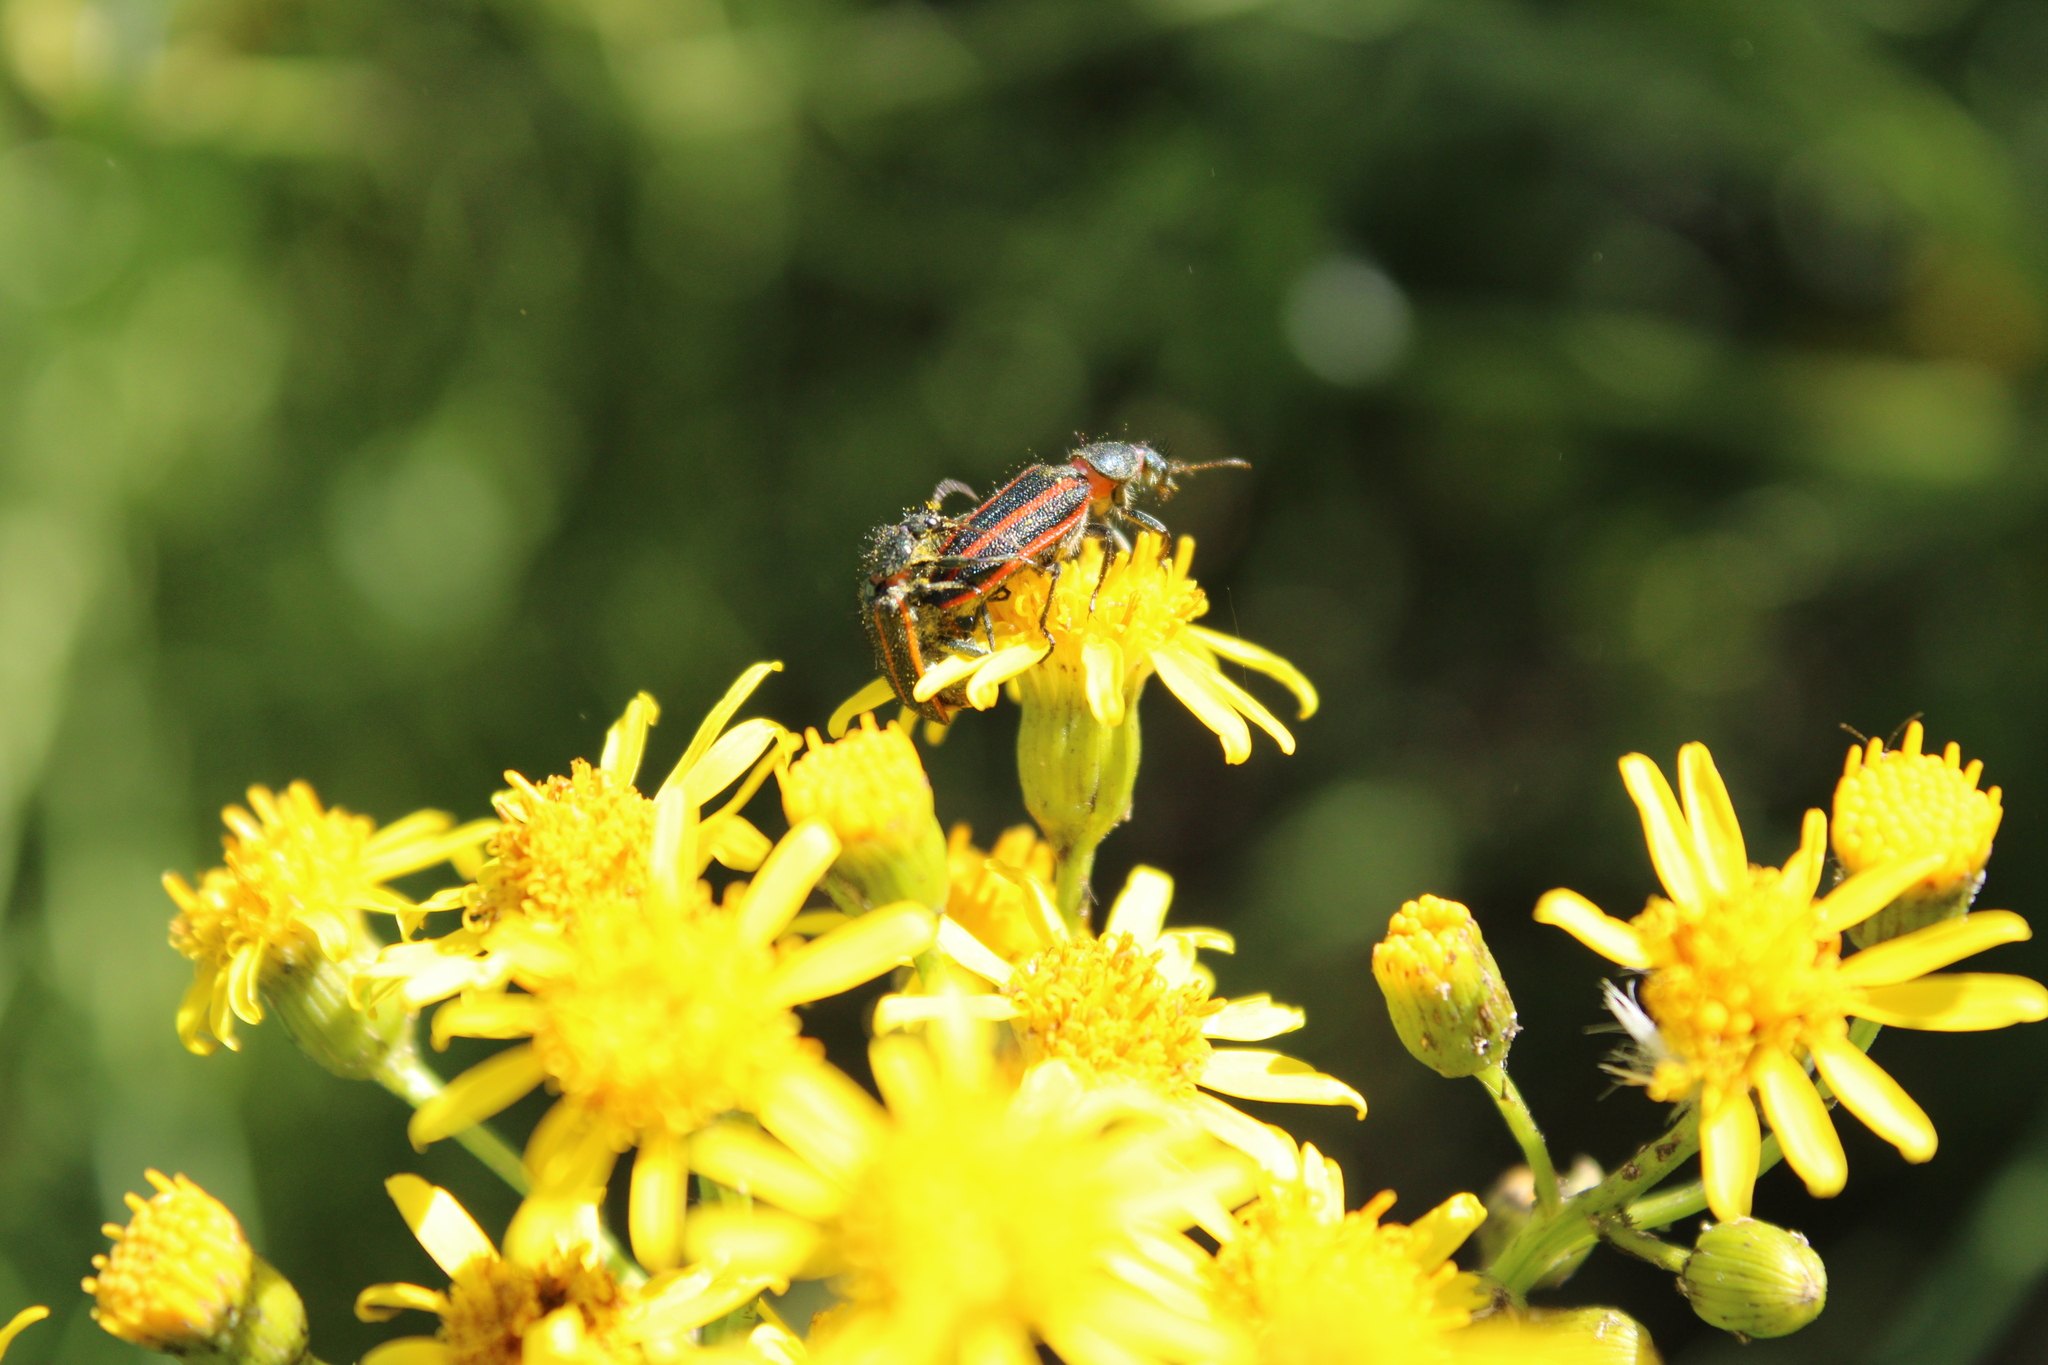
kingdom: Animalia
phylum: Arthropoda
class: Insecta
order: Coleoptera
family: Melyridae
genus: Astylus
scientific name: Astylus
